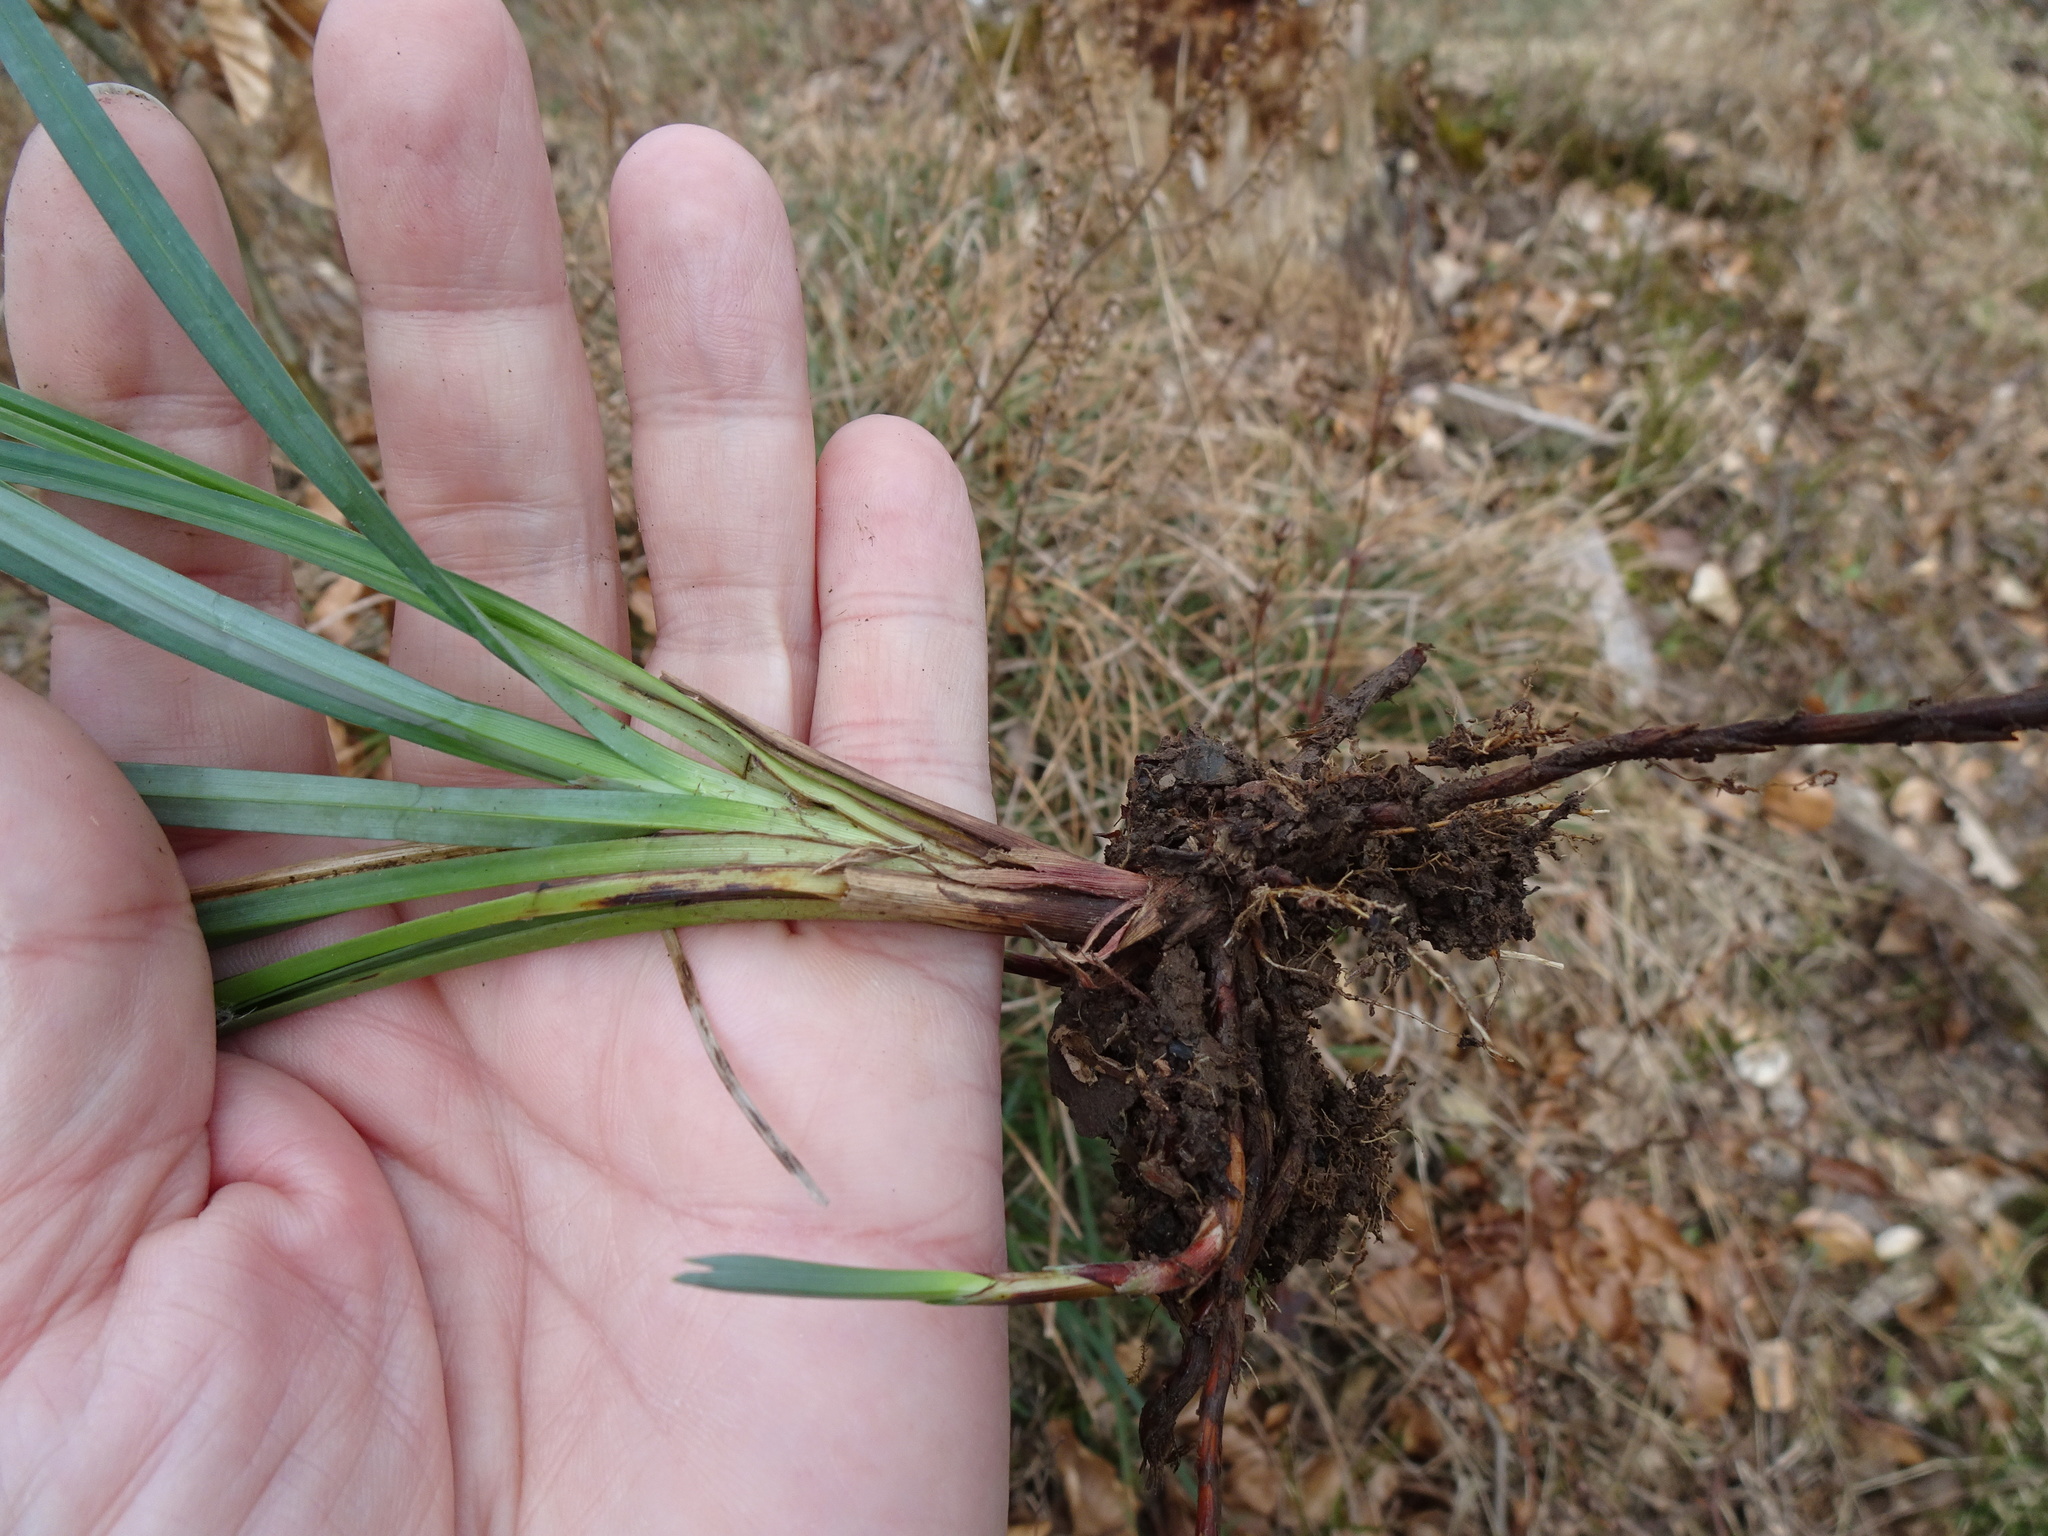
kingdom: Plantae
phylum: Tracheophyta
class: Liliopsida
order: Poales
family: Cyperaceae
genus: Carex
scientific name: Carex acutiformis
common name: Lesser pond-sedge
